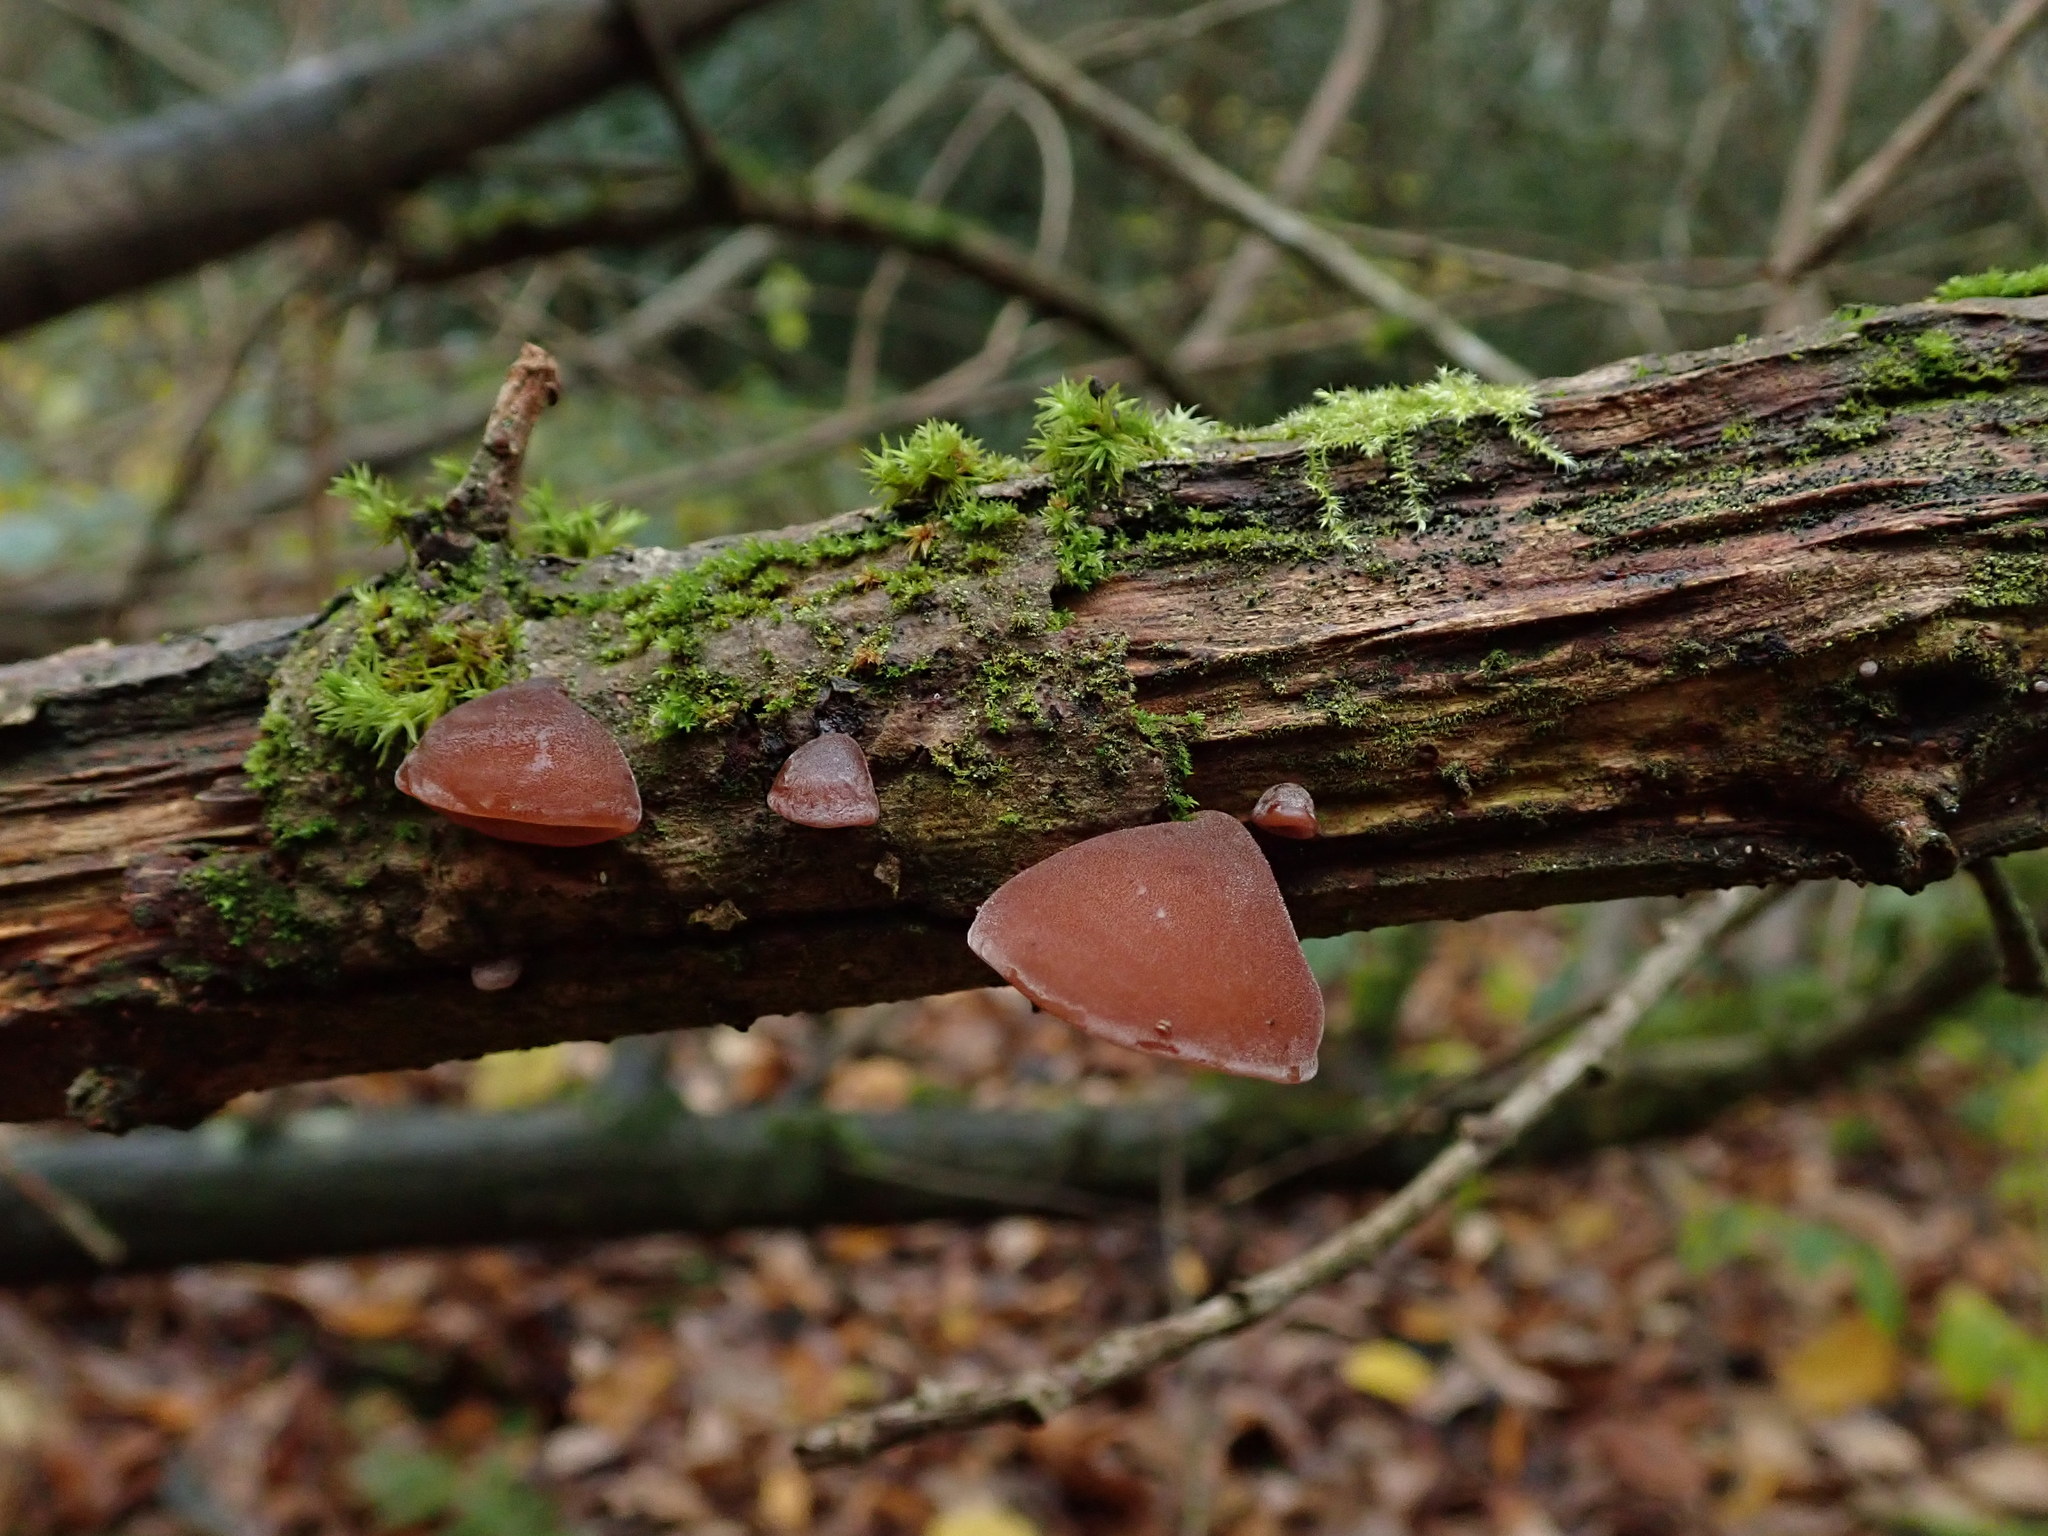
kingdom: Fungi
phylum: Basidiomycota
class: Agaricomycetes
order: Auriculariales
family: Auriculariaceae
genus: Auricularia
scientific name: Auricularia auricula-judae
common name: Jelly ear
